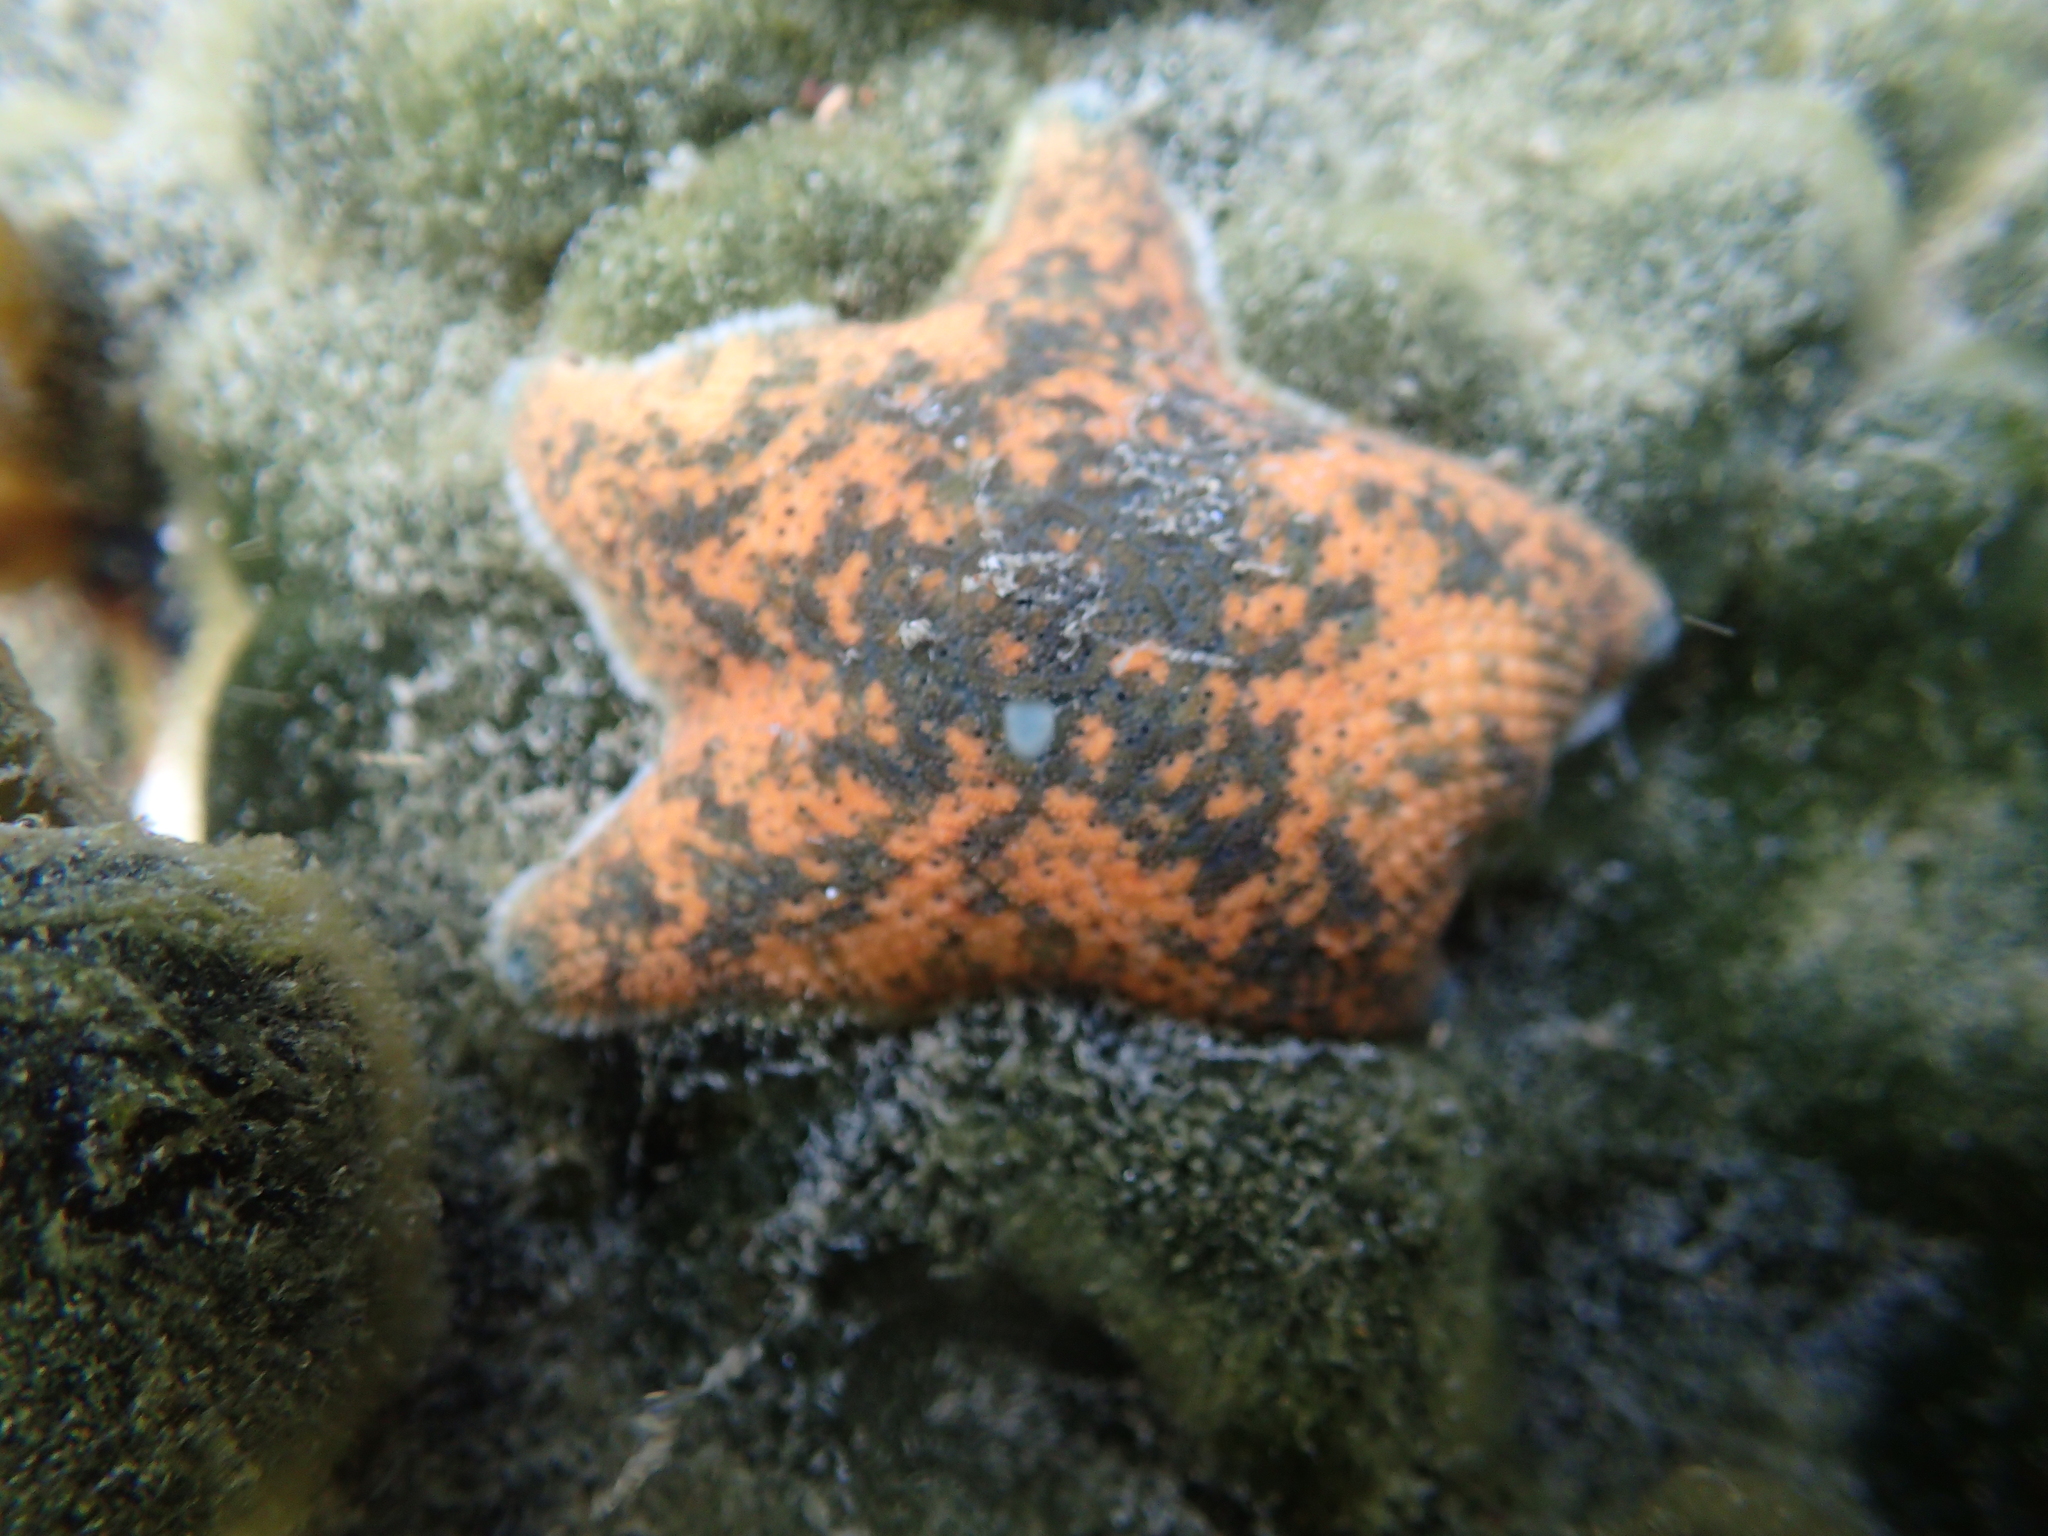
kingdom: Animalia
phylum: Echinodermata
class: Asteroidea
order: Valvatida
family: Asterinidae
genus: Patiriella
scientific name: Patiriella regularis
